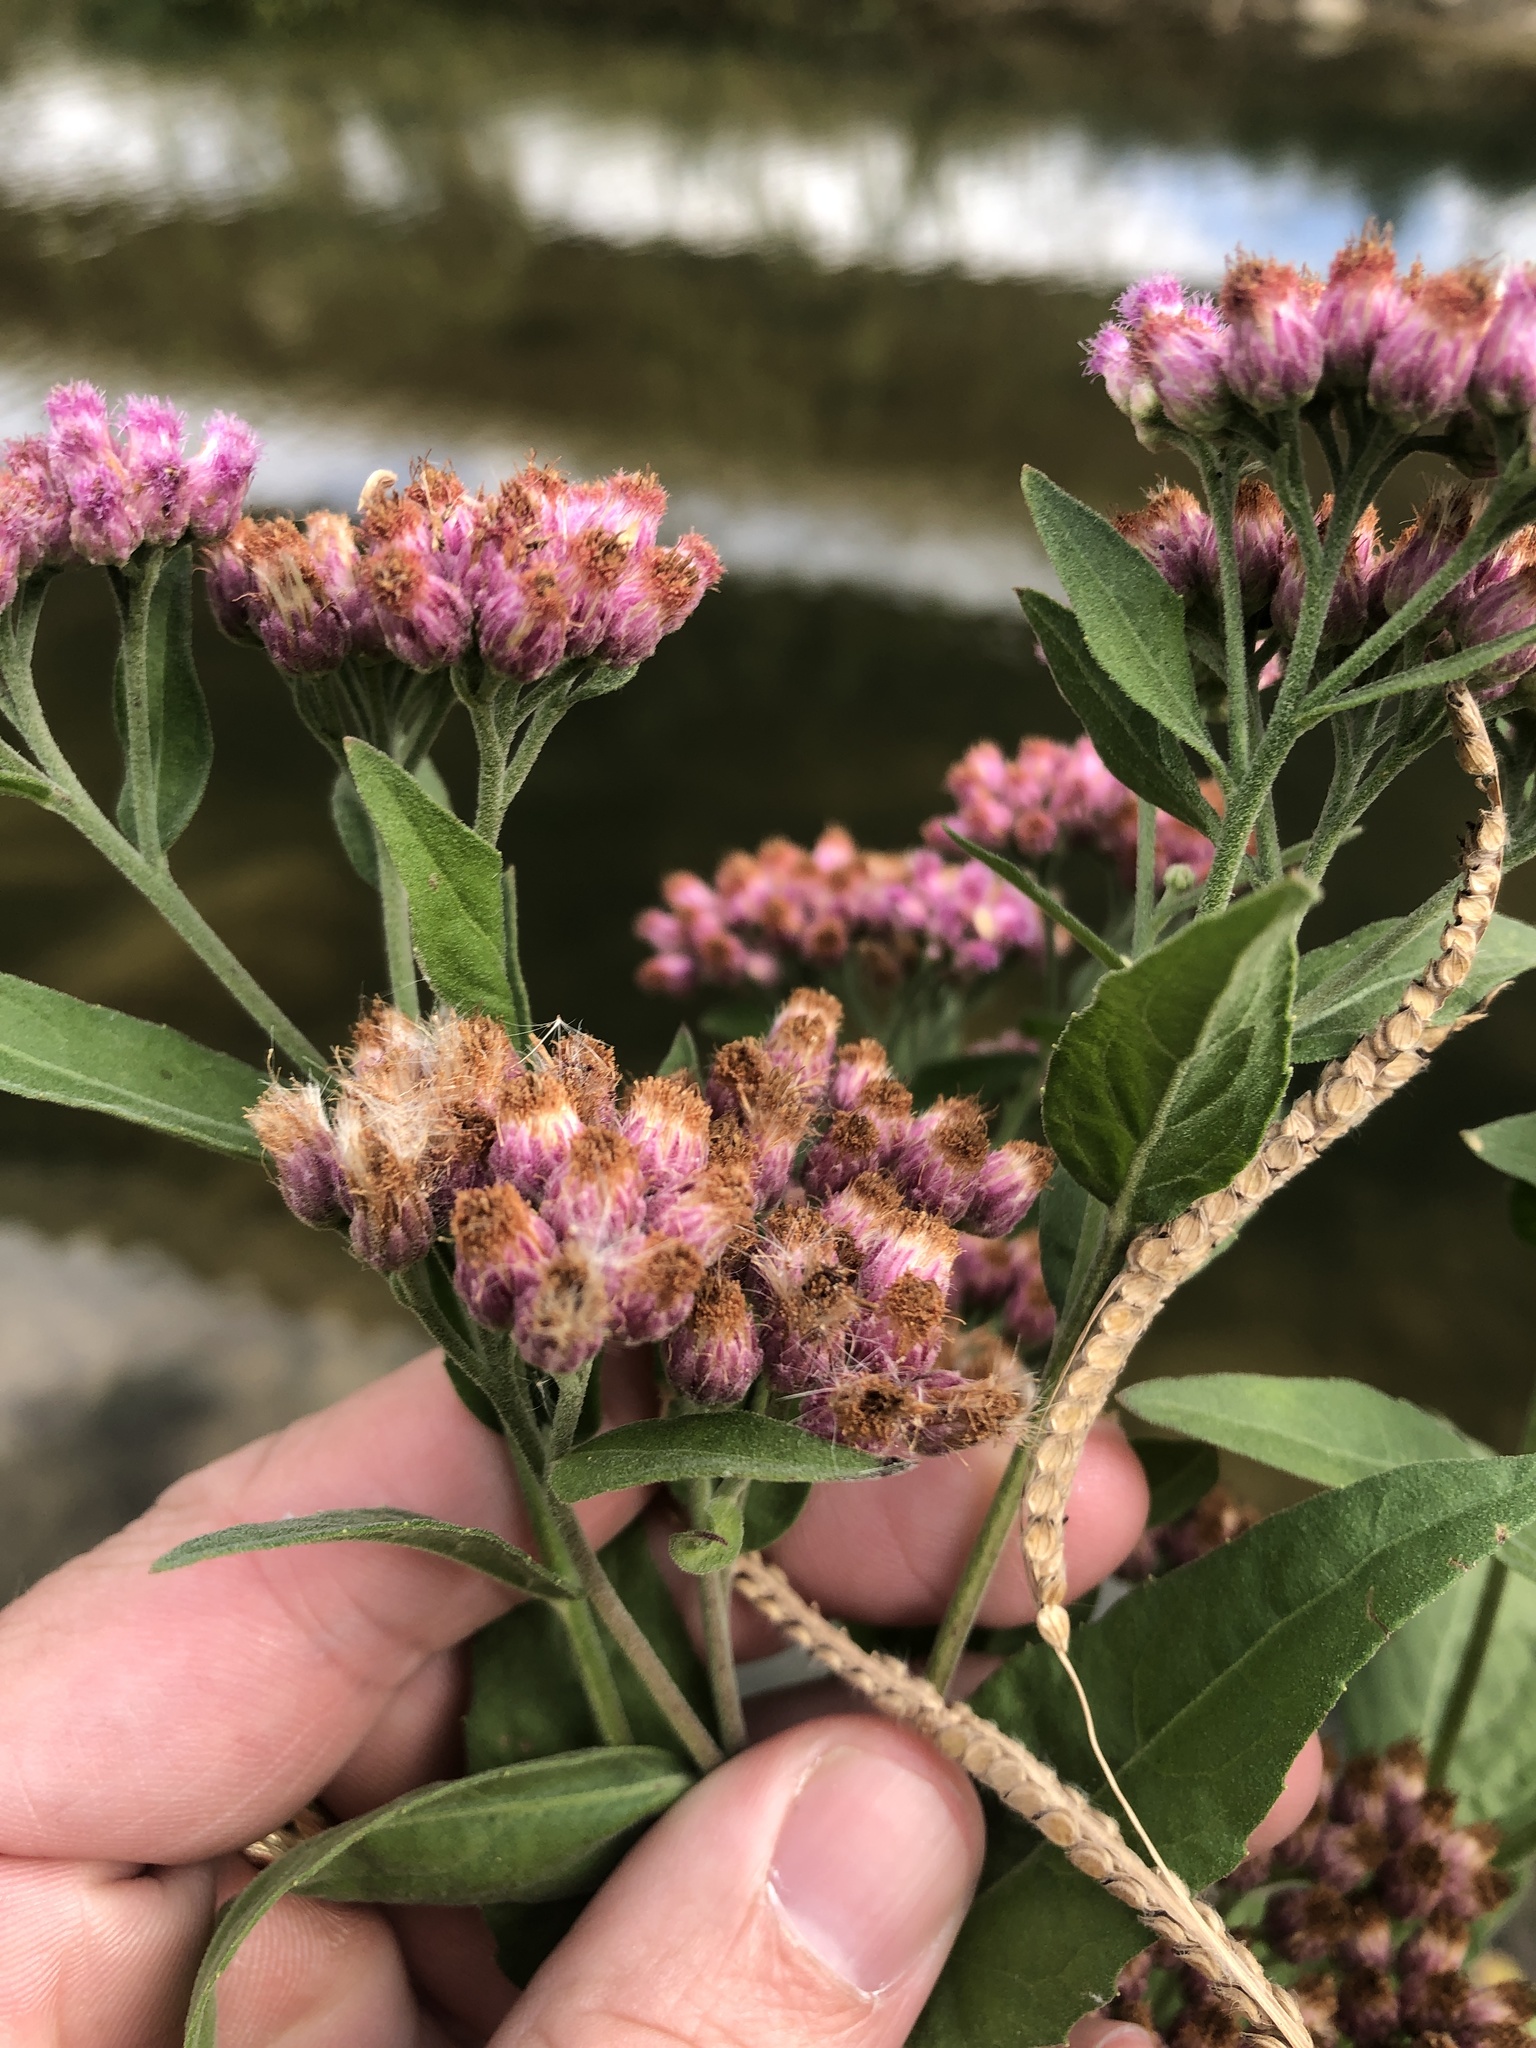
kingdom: Plantae
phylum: Tracheophyta
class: Magnoliopsida
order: Asterales
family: Asteraceae
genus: Pluchea
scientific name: Pluchea odorata
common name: Saltmarsh fleabane
